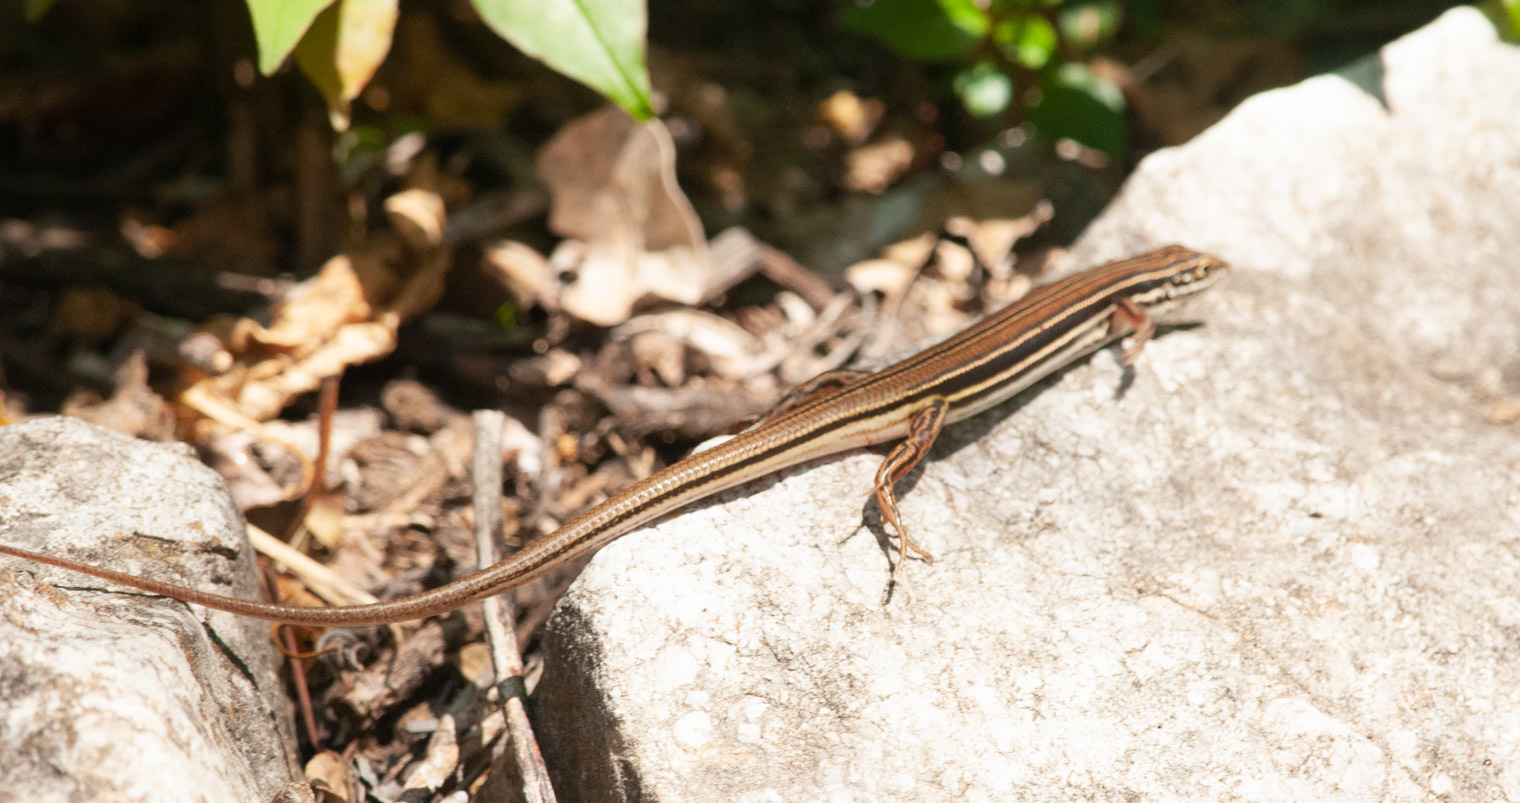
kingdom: Animalia
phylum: Chordata
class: Squamata
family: Scincidae
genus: Ctenotus
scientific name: Ctenotus taeniolatus
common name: Copper-tailed skink
